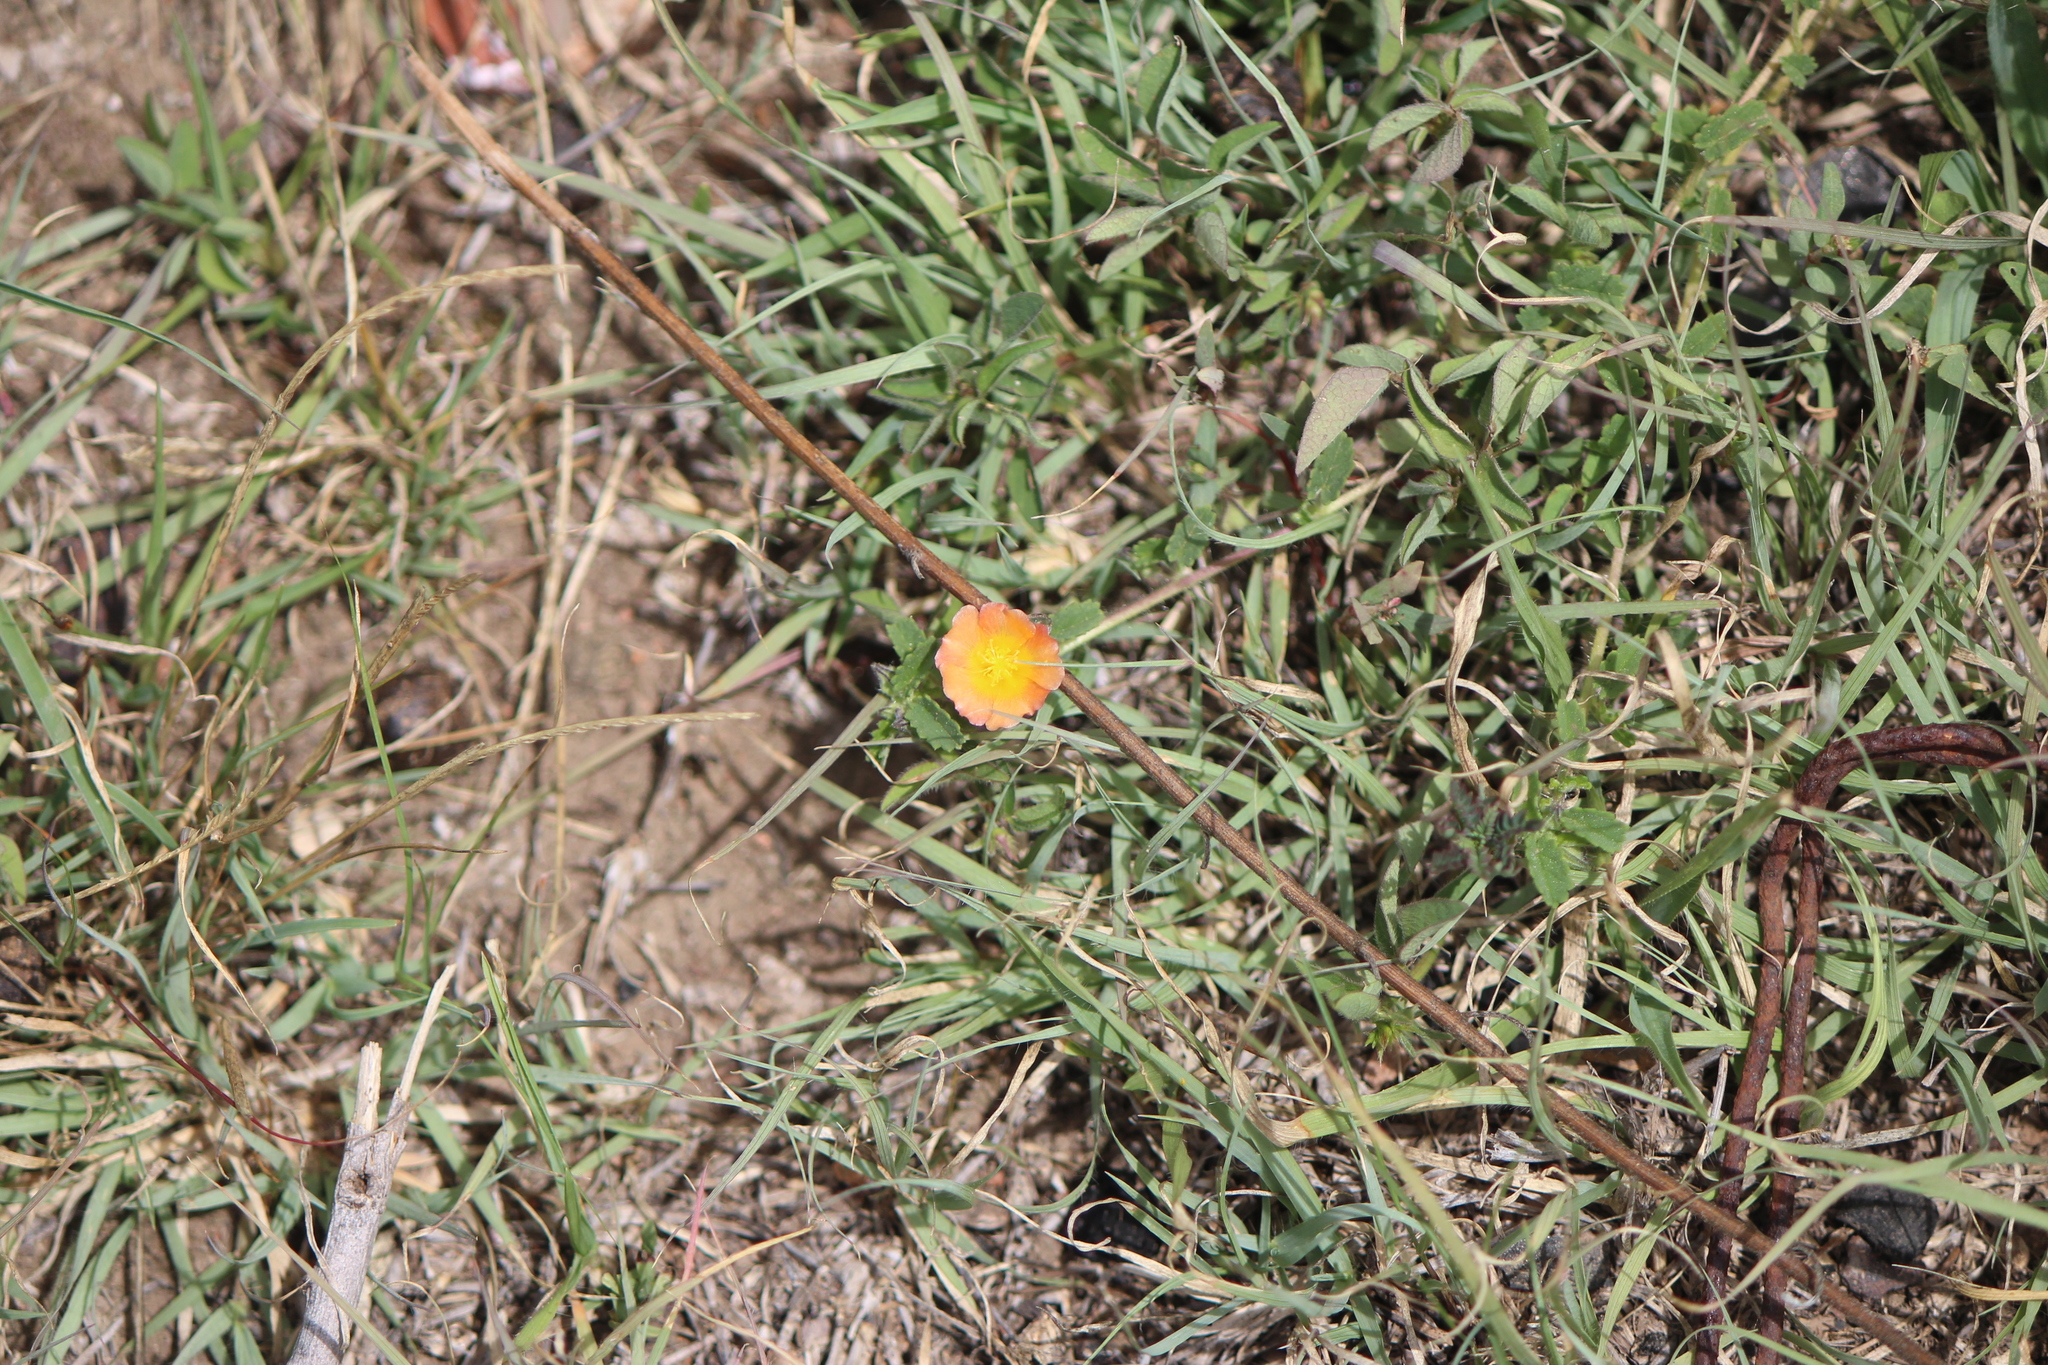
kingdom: Plantae
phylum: Tracheophyta
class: Magnoliopsida
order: Malvales
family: Malvaceae
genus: Sida
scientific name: Sida abutilifolia
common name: Spreading fanpetals
